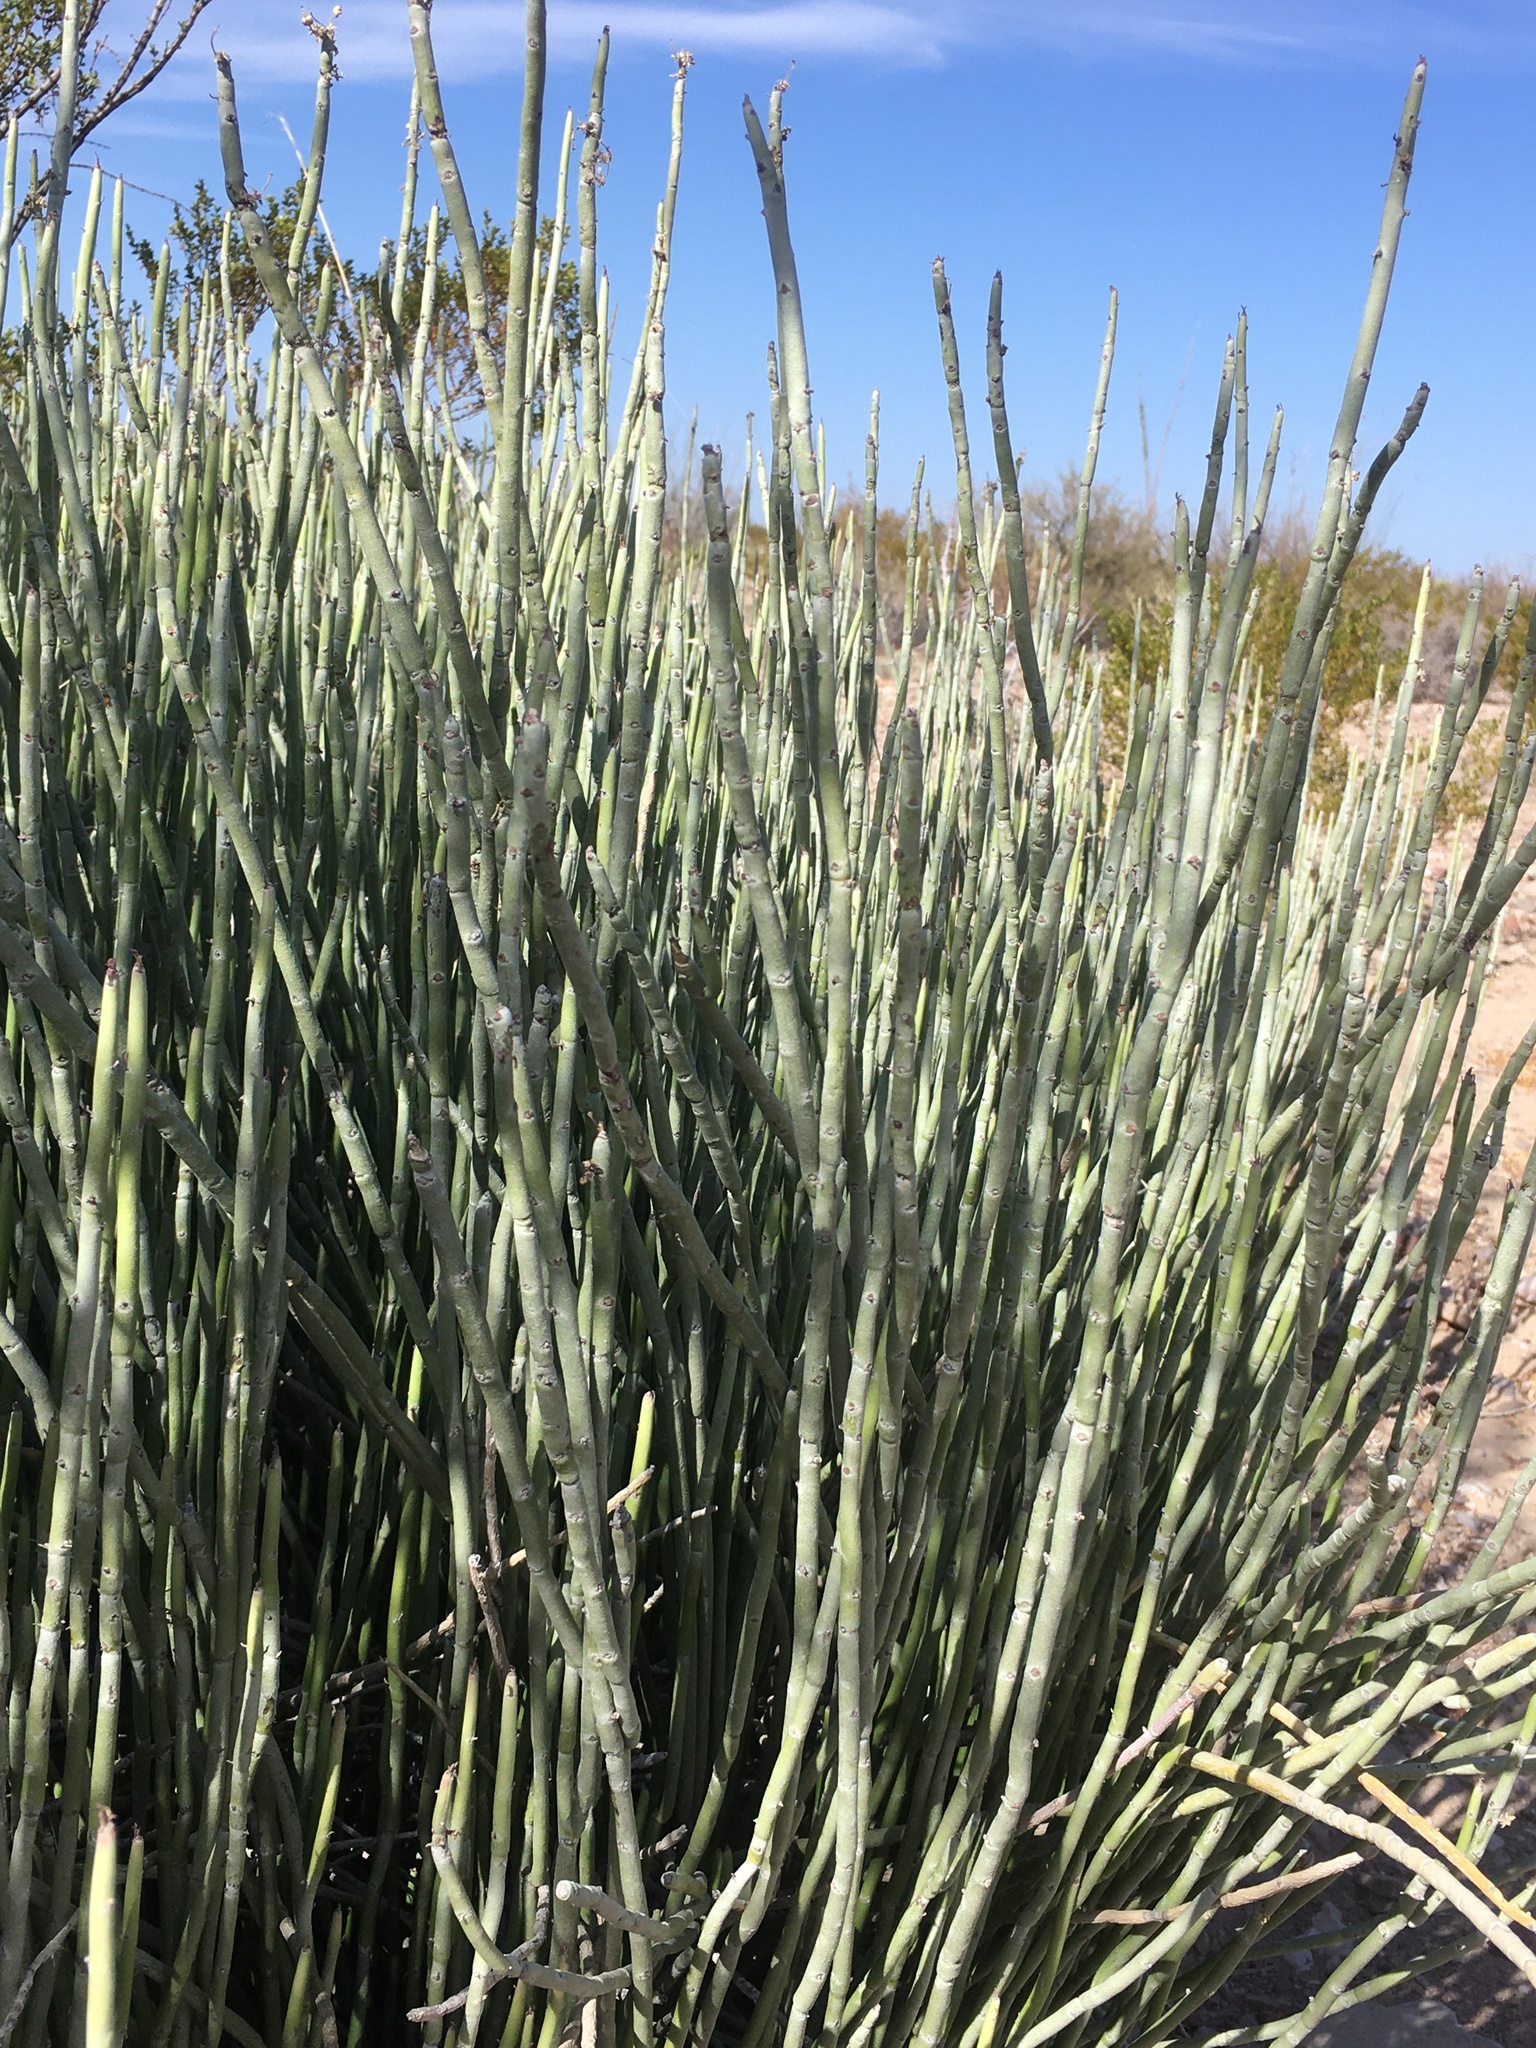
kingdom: Plantae
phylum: Tracheophyta
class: Magnoliopsida
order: Malpighiales
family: Euphorbiaceae
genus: Euphorbia
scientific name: Euphorbia antisyphilitica
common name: Candelilla
